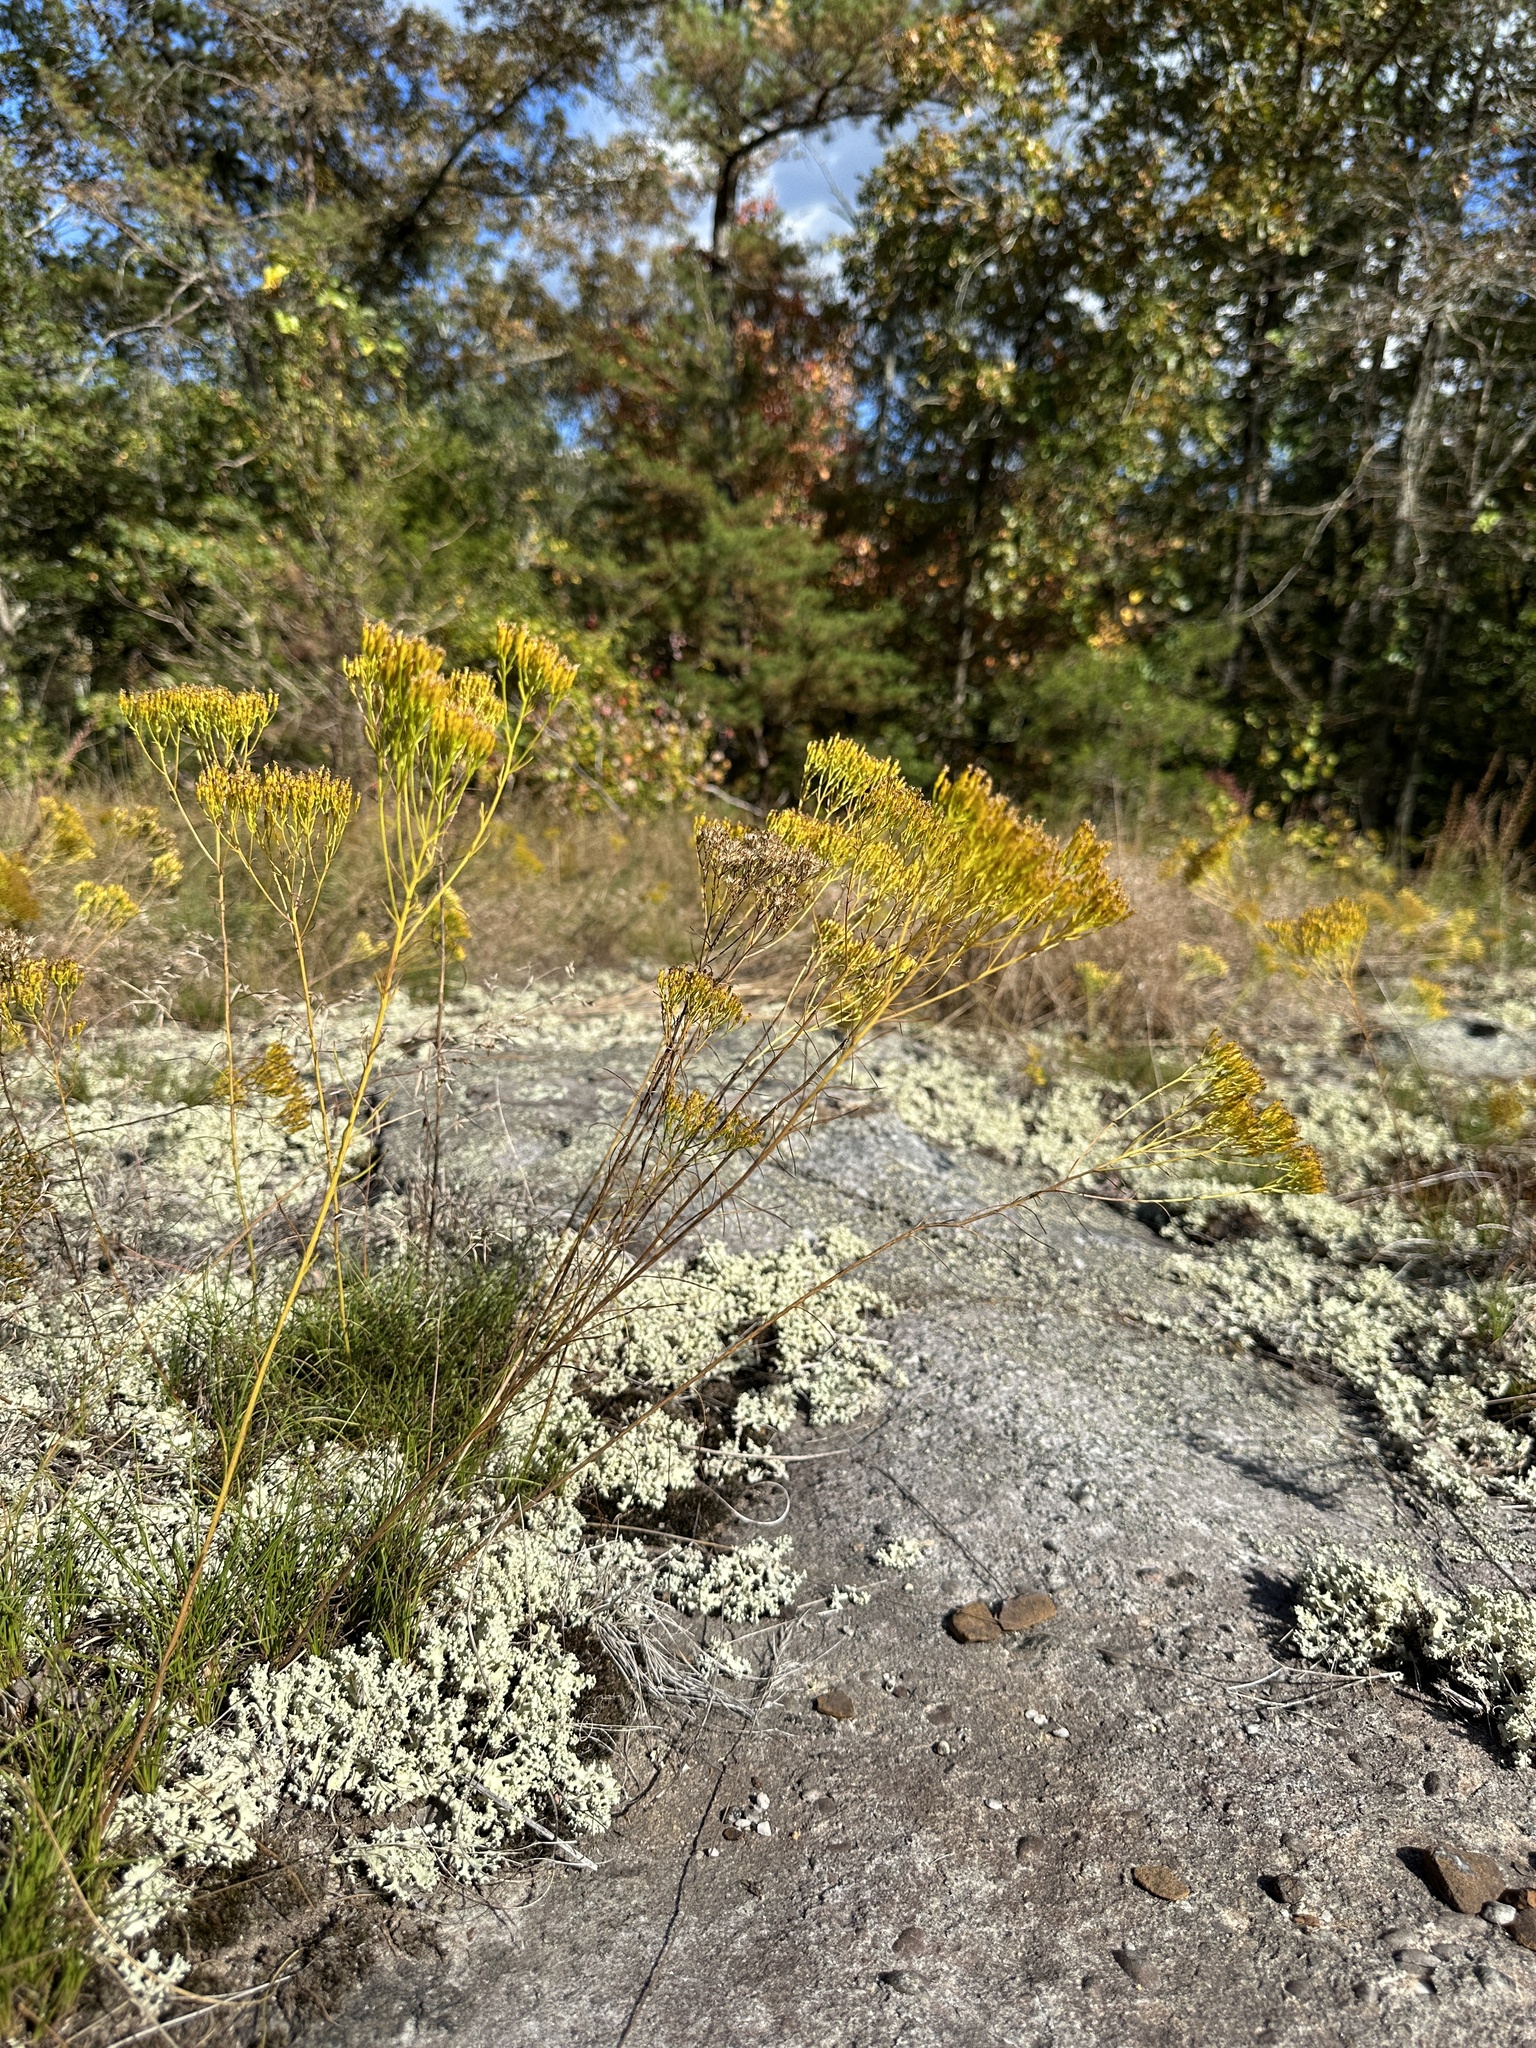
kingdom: Plantae
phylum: Tracheophyta
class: Magnoliopsida
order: Asterales
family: Asteraceae
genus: Bigelowia
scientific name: Bigelowia nuttallii
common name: Nuttall's rayless-goldenrod
